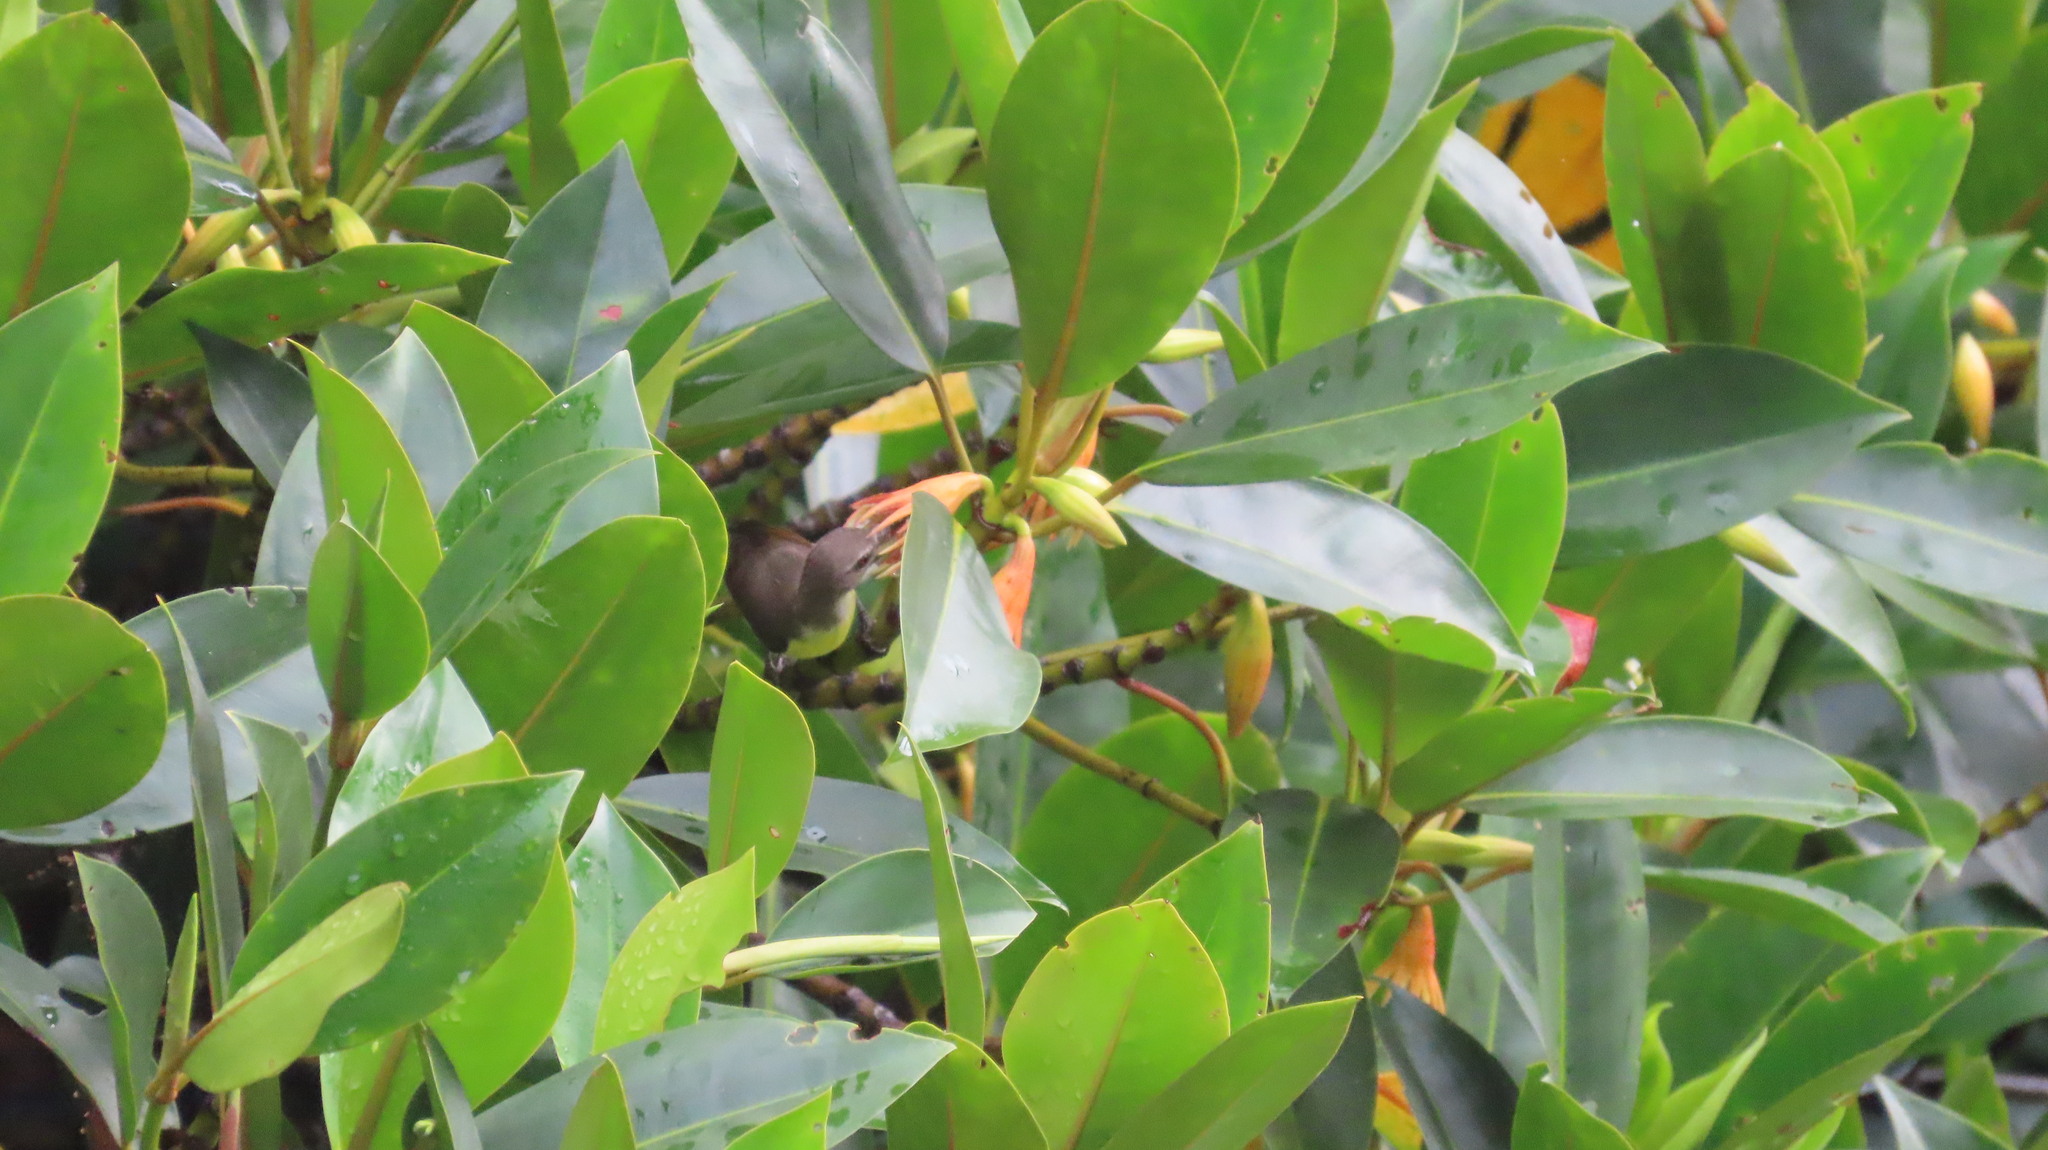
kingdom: Animalia
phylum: Chordata
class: Aves
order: Passeriformes
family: Nectariniidae
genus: Leptocoma
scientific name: Leptocoma zeylonica
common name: Purple-rumped sunbird
